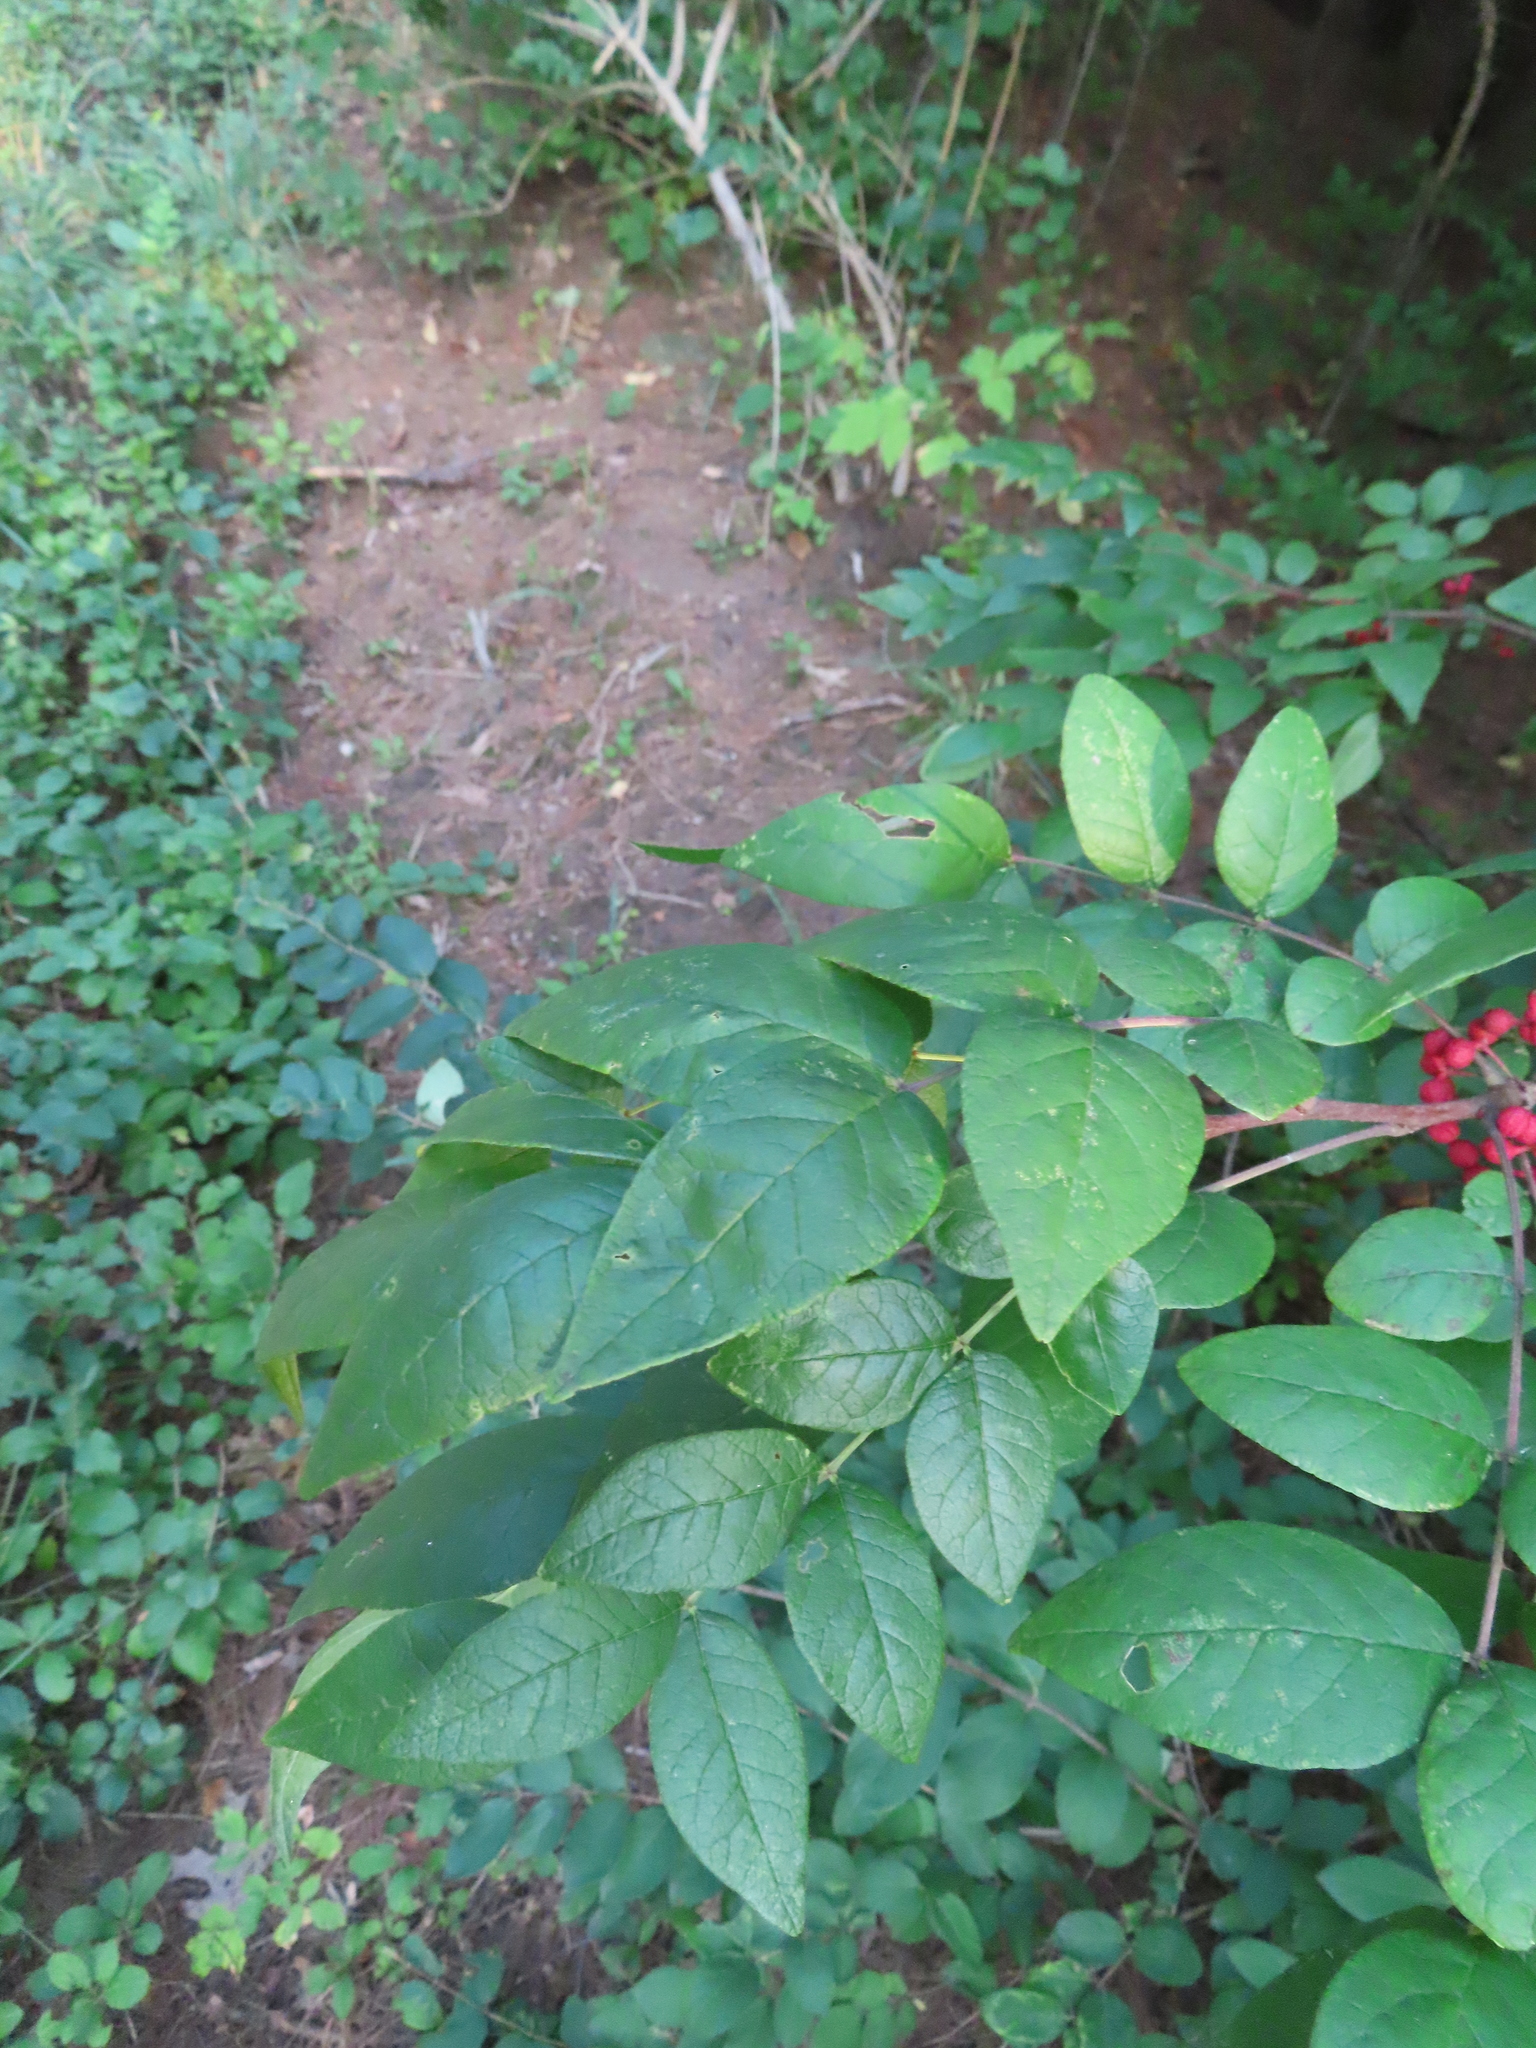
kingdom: Plantae
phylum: Tracheophyta
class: Magnoliopsida
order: Sapindales
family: Rutaceae
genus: Zanthoxylum
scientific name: Zanthoxylum americanum
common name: Northern prickly-ash
